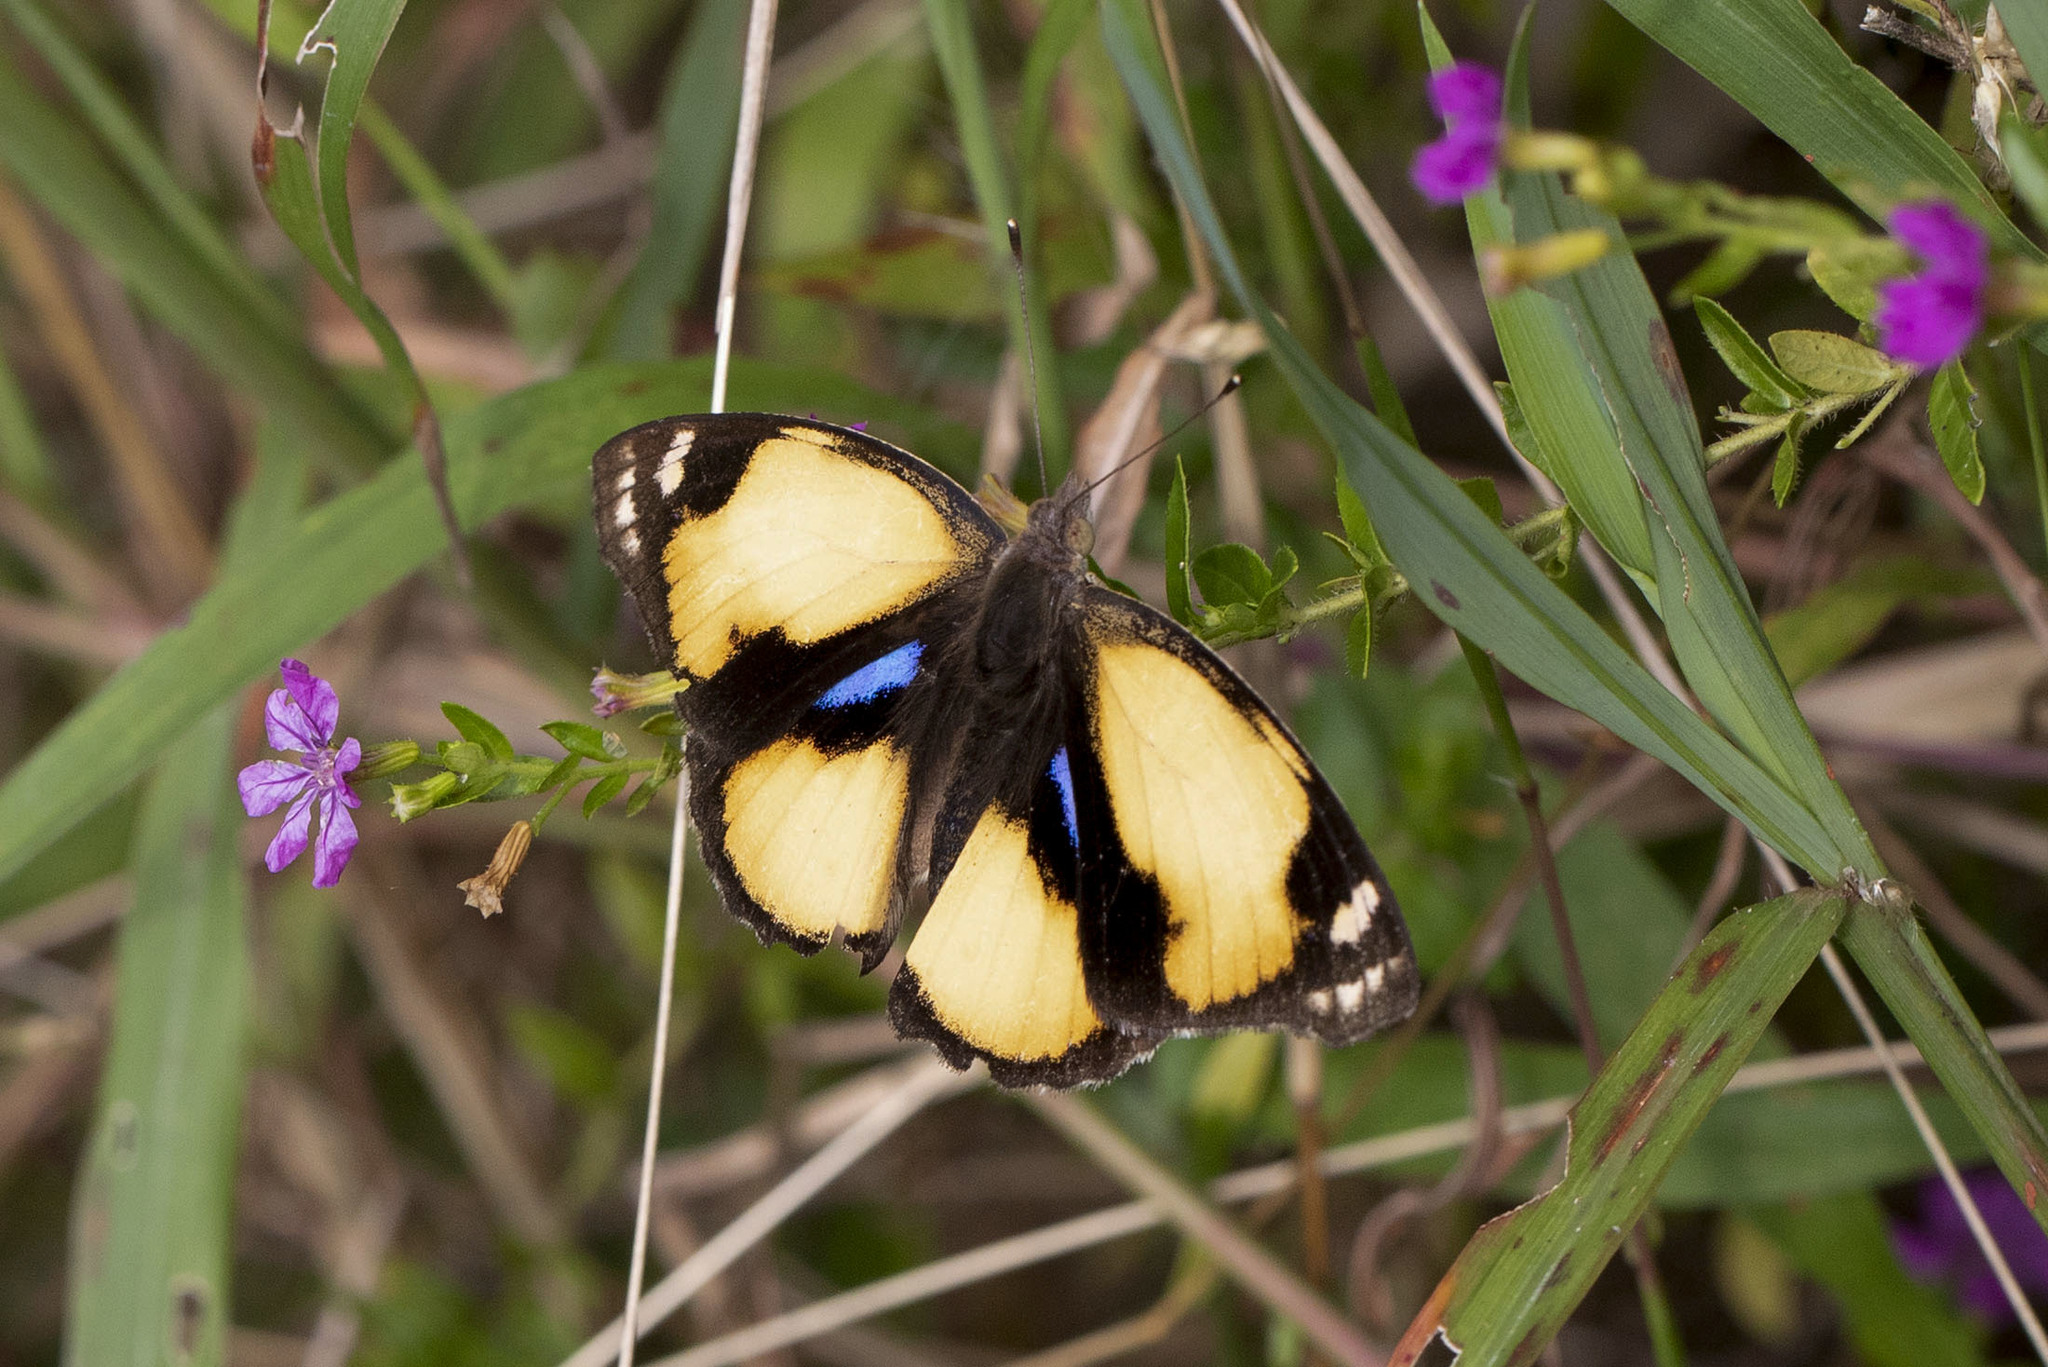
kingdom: Animalia
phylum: Arthropoda
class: Insecta
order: Lepidoptera
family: Nymphalidae
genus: Junonia
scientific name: Junonia hierta
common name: Yellow pansy
